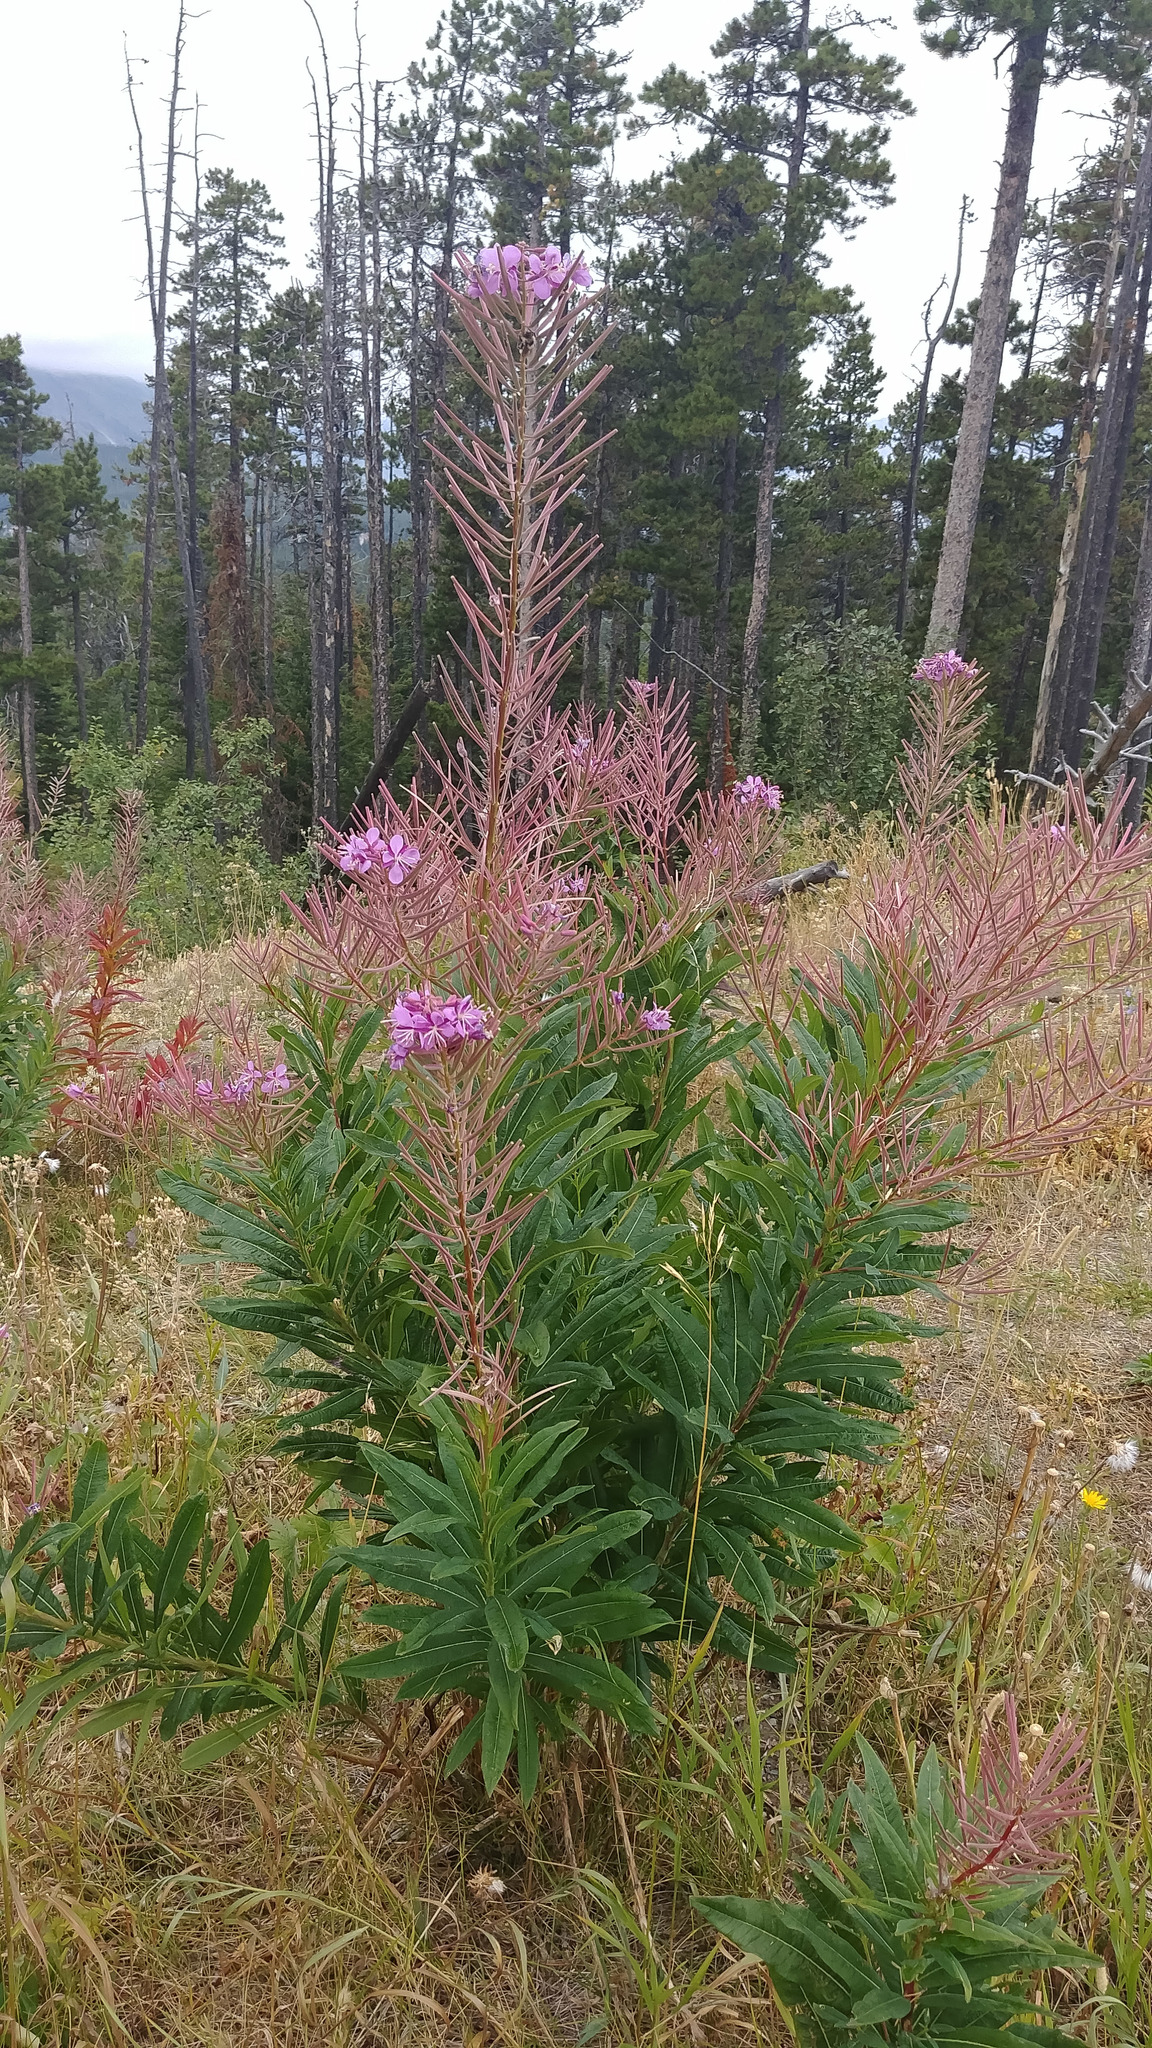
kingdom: Plantae
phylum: Tracheophyta
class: Magnoliopsida
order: Myrtales
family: Onagraceae
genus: Chamaenerion
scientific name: Chamaenerion angustifolium
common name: Fireweed
